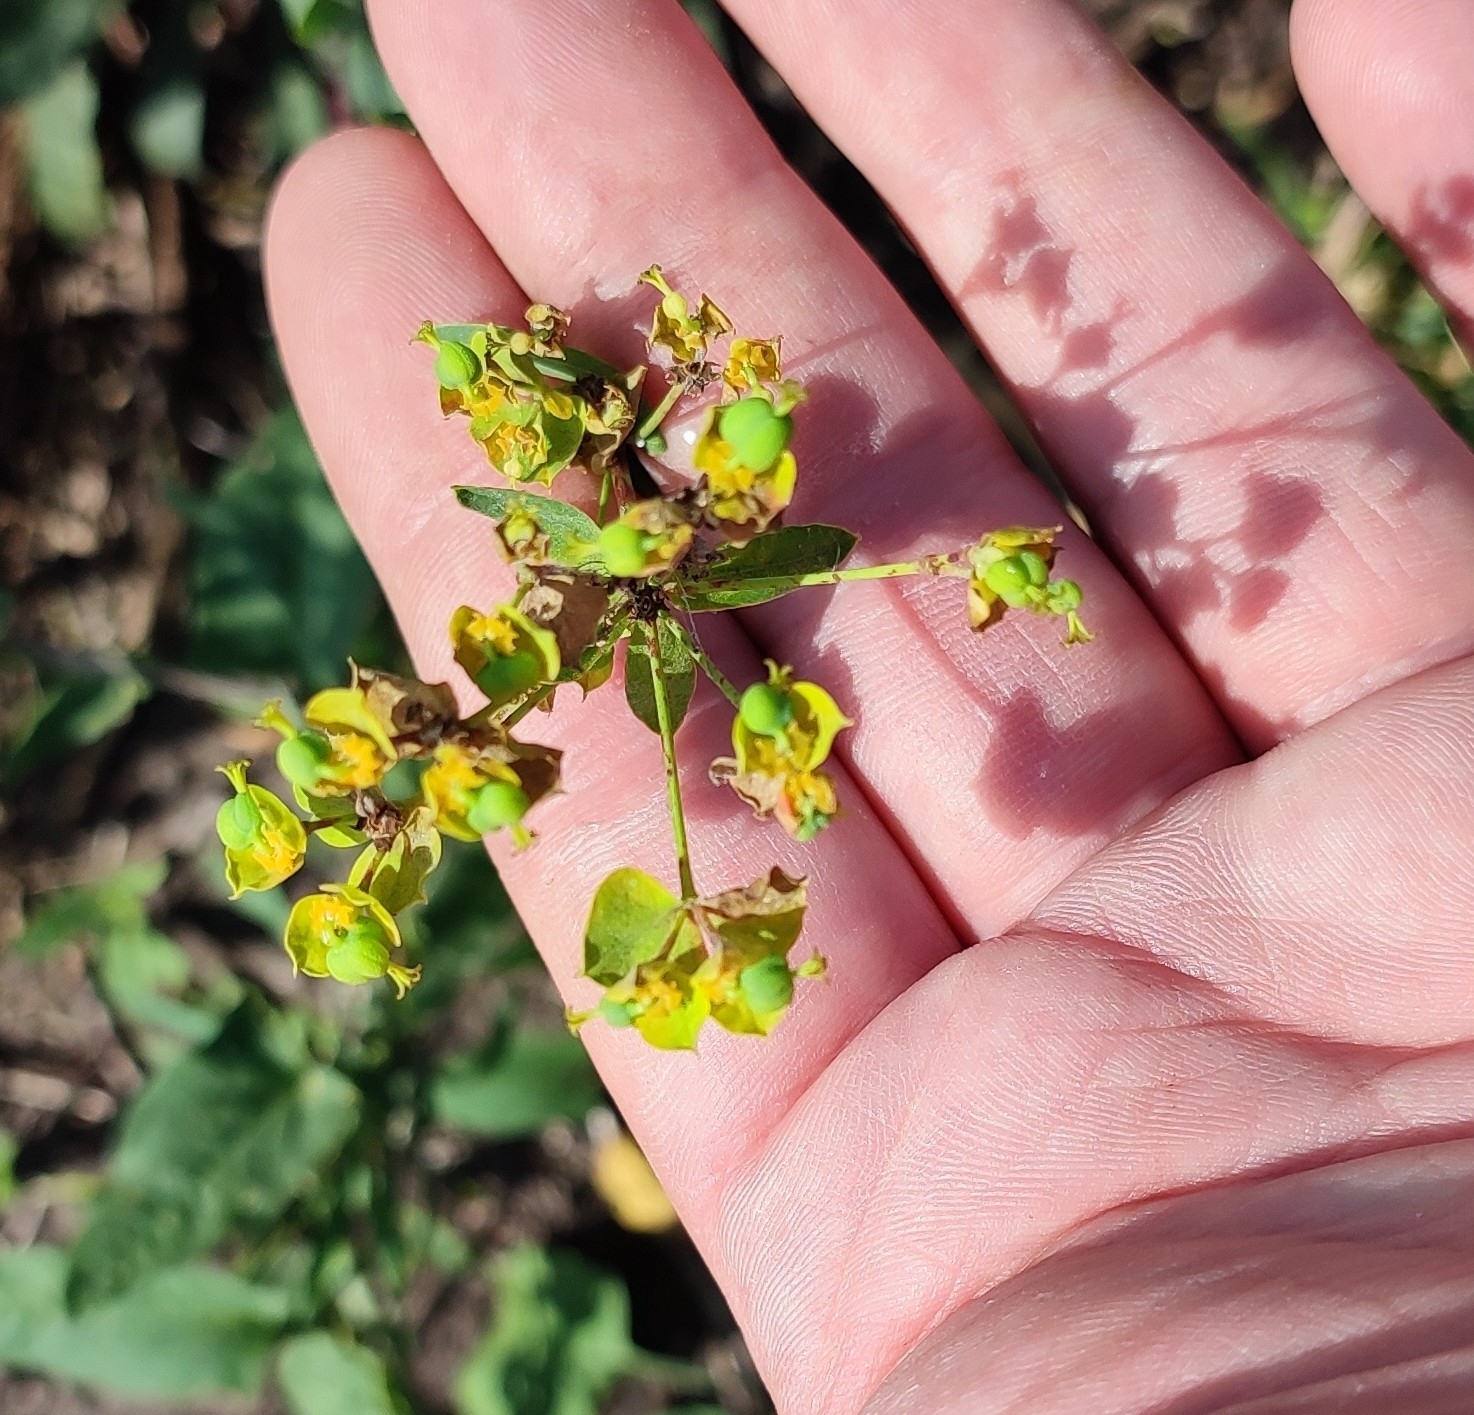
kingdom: Plantae
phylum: Tracheophyta
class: Magnoliopsida
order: Malpighiales
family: Euphorbiaceae
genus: Euphorbia
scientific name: Euphorbia virgata
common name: Leafy spurge
